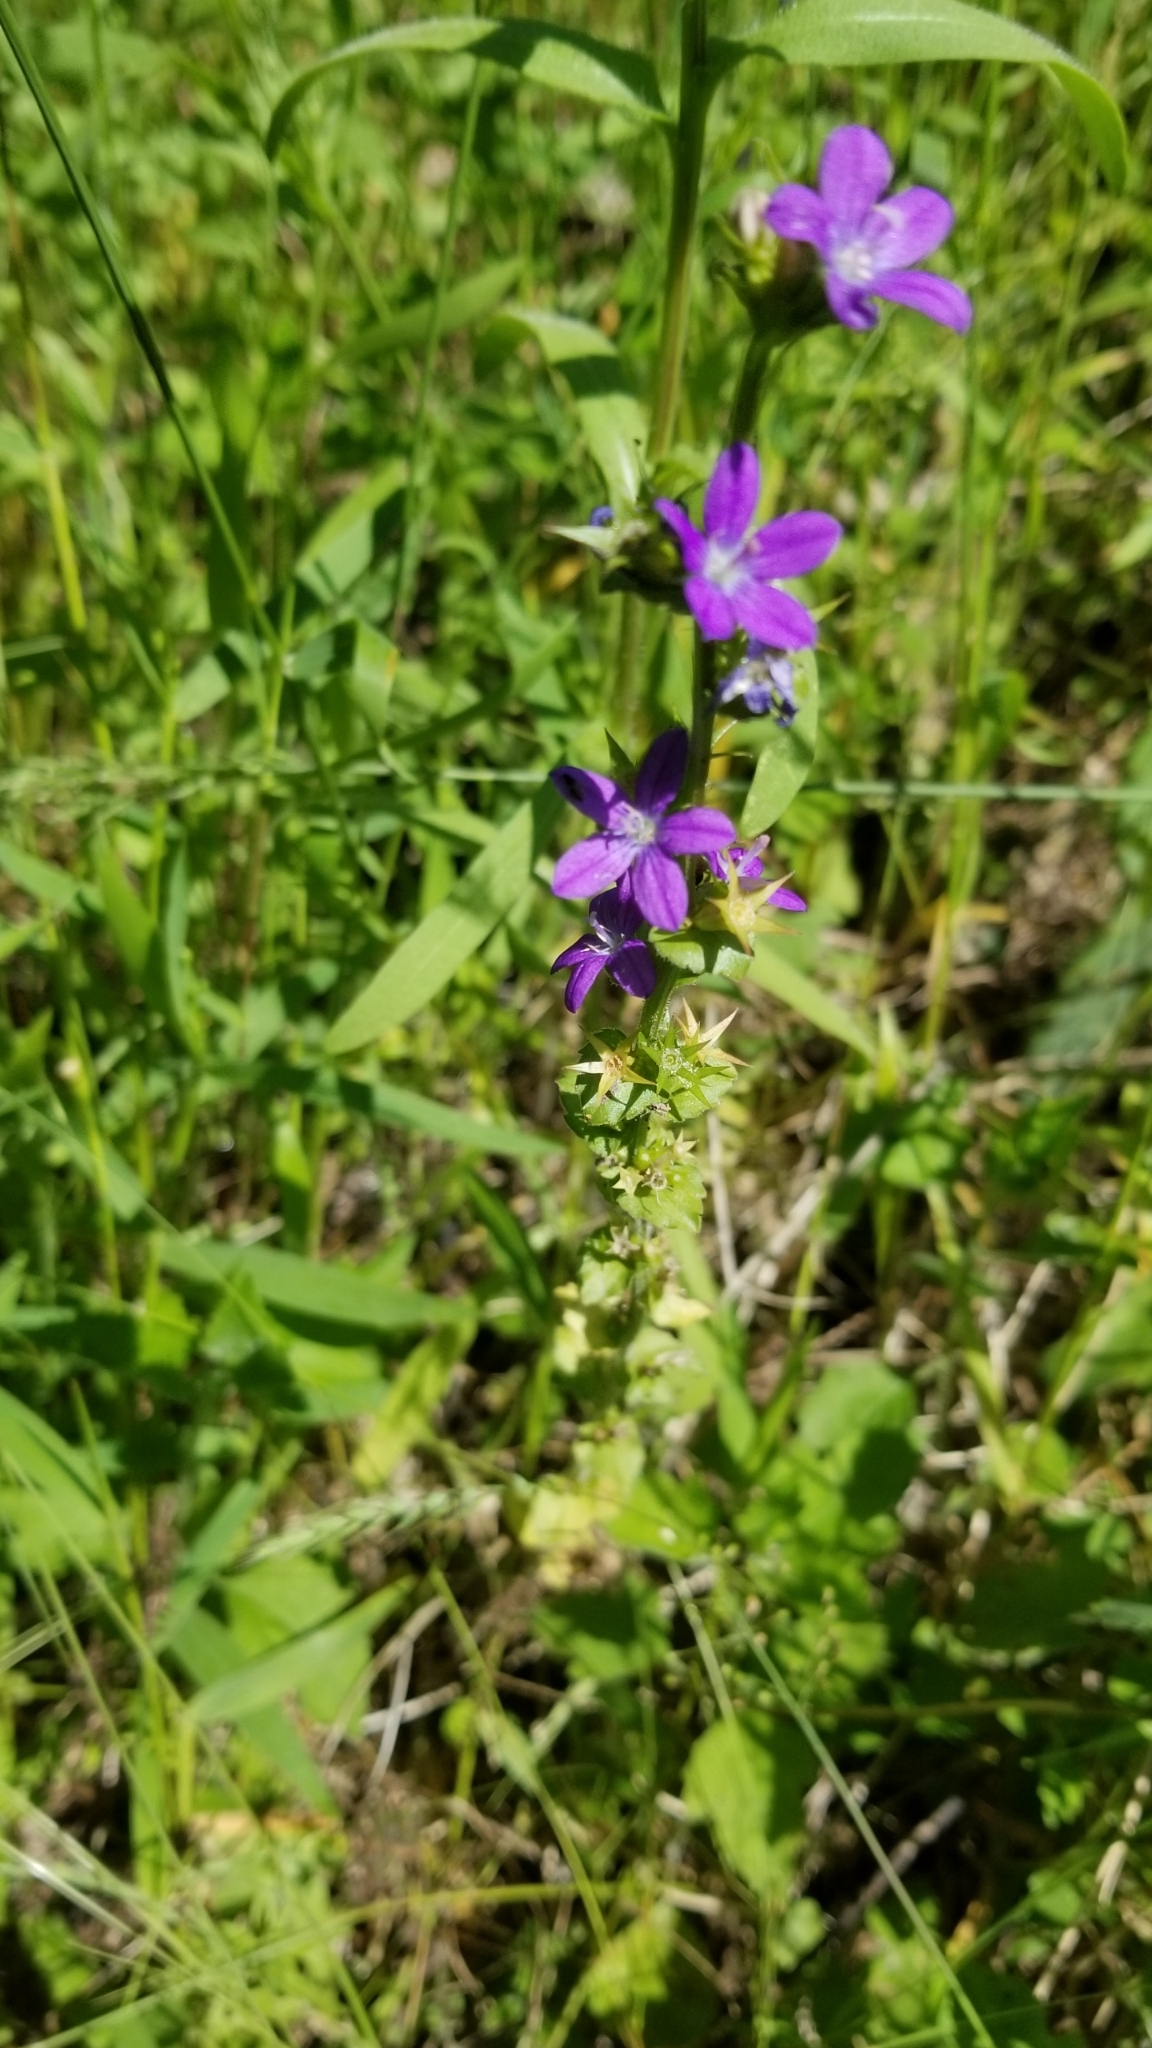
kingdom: Plantae
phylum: Tracheophyta
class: Magnoliopsida
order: Asterales
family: Campanulaceae
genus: Triodanis
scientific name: Triodanis perfoliata
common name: Clasping venus' looking-glass
